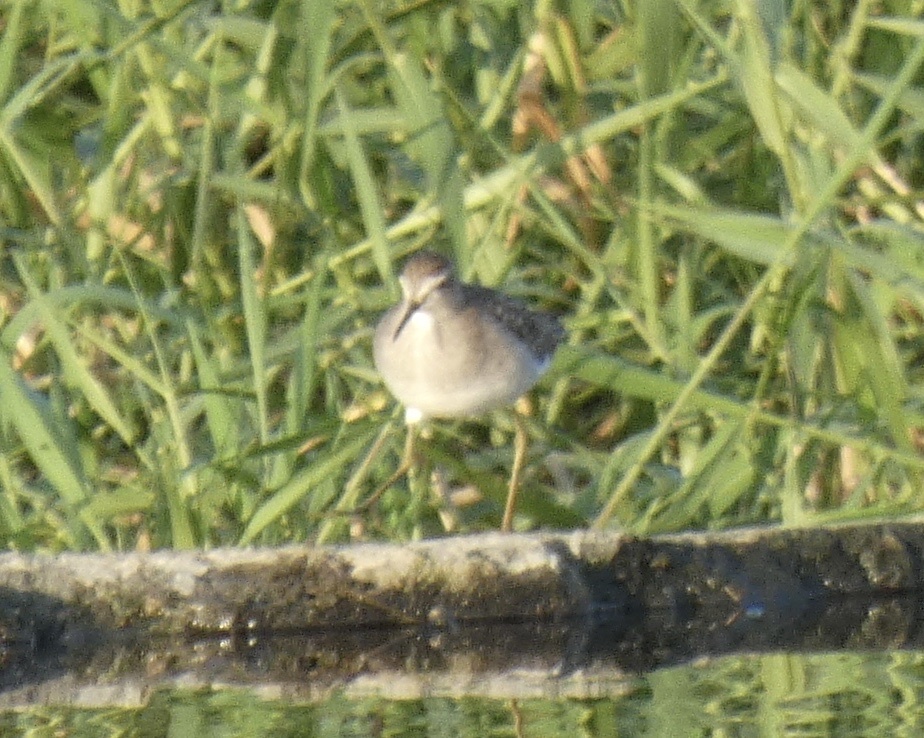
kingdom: Animalia
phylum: Chordata
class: Aves
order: Charadriiformes
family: Scolopacidae
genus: Tringa
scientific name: Tringa glareola
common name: Wood sandpiper
